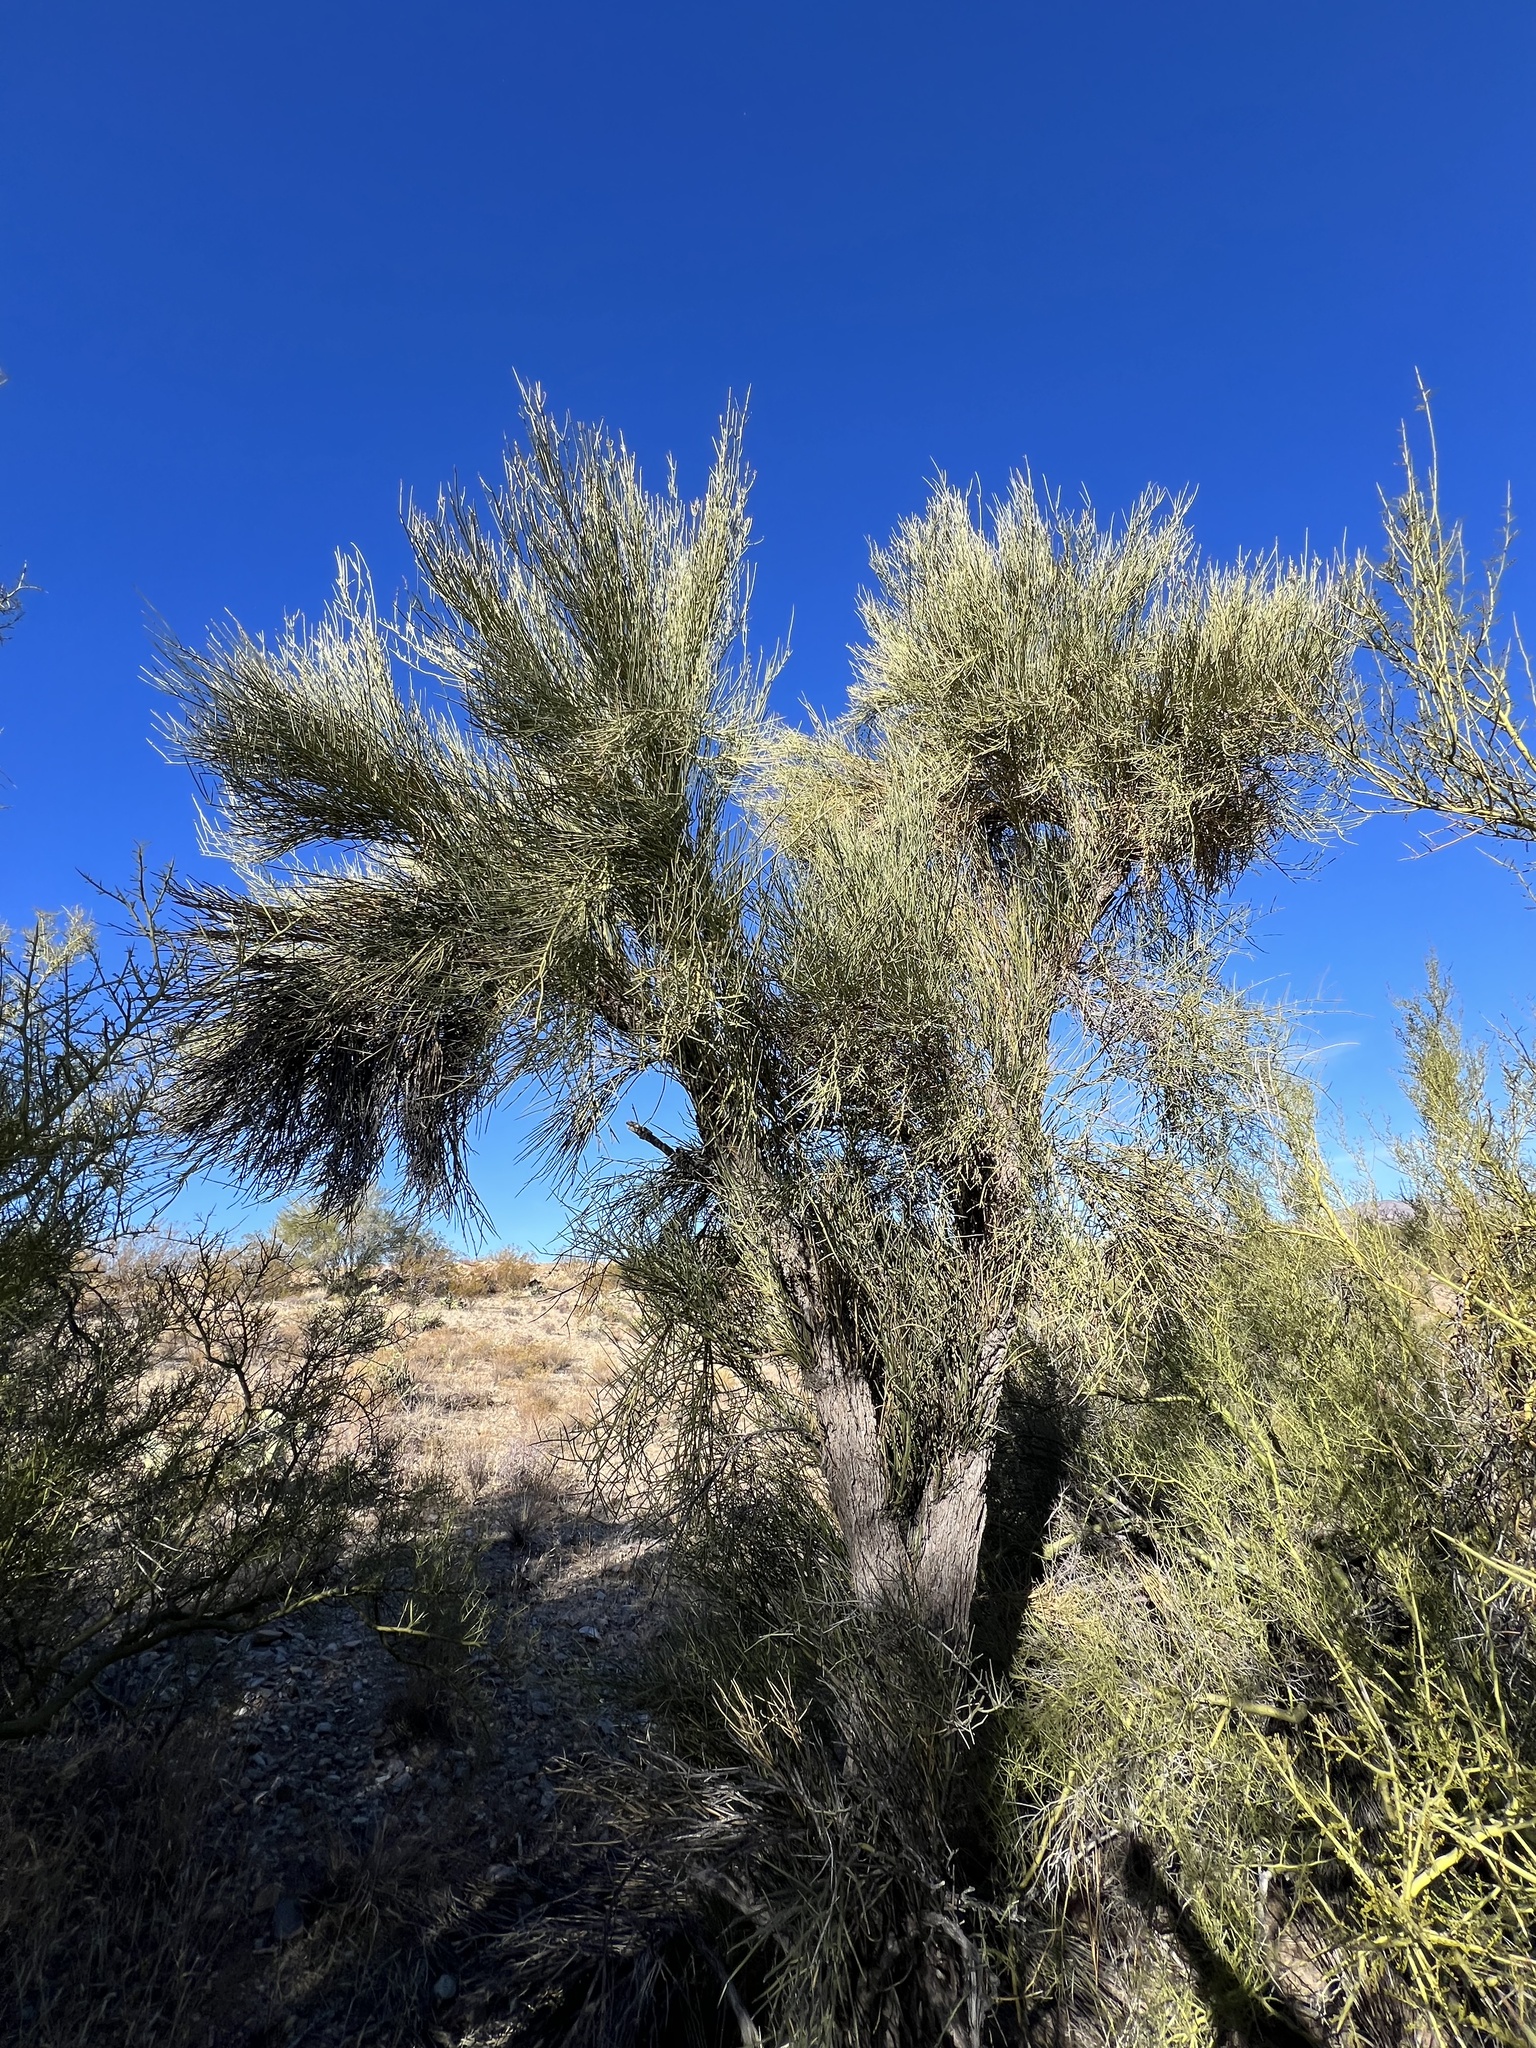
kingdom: Plantae
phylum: Tracheophyta
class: Magnoliopsida
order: Celastrales
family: Celastraceae
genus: Canotia
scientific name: Canotia holacantha
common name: Crucifixion thorns
